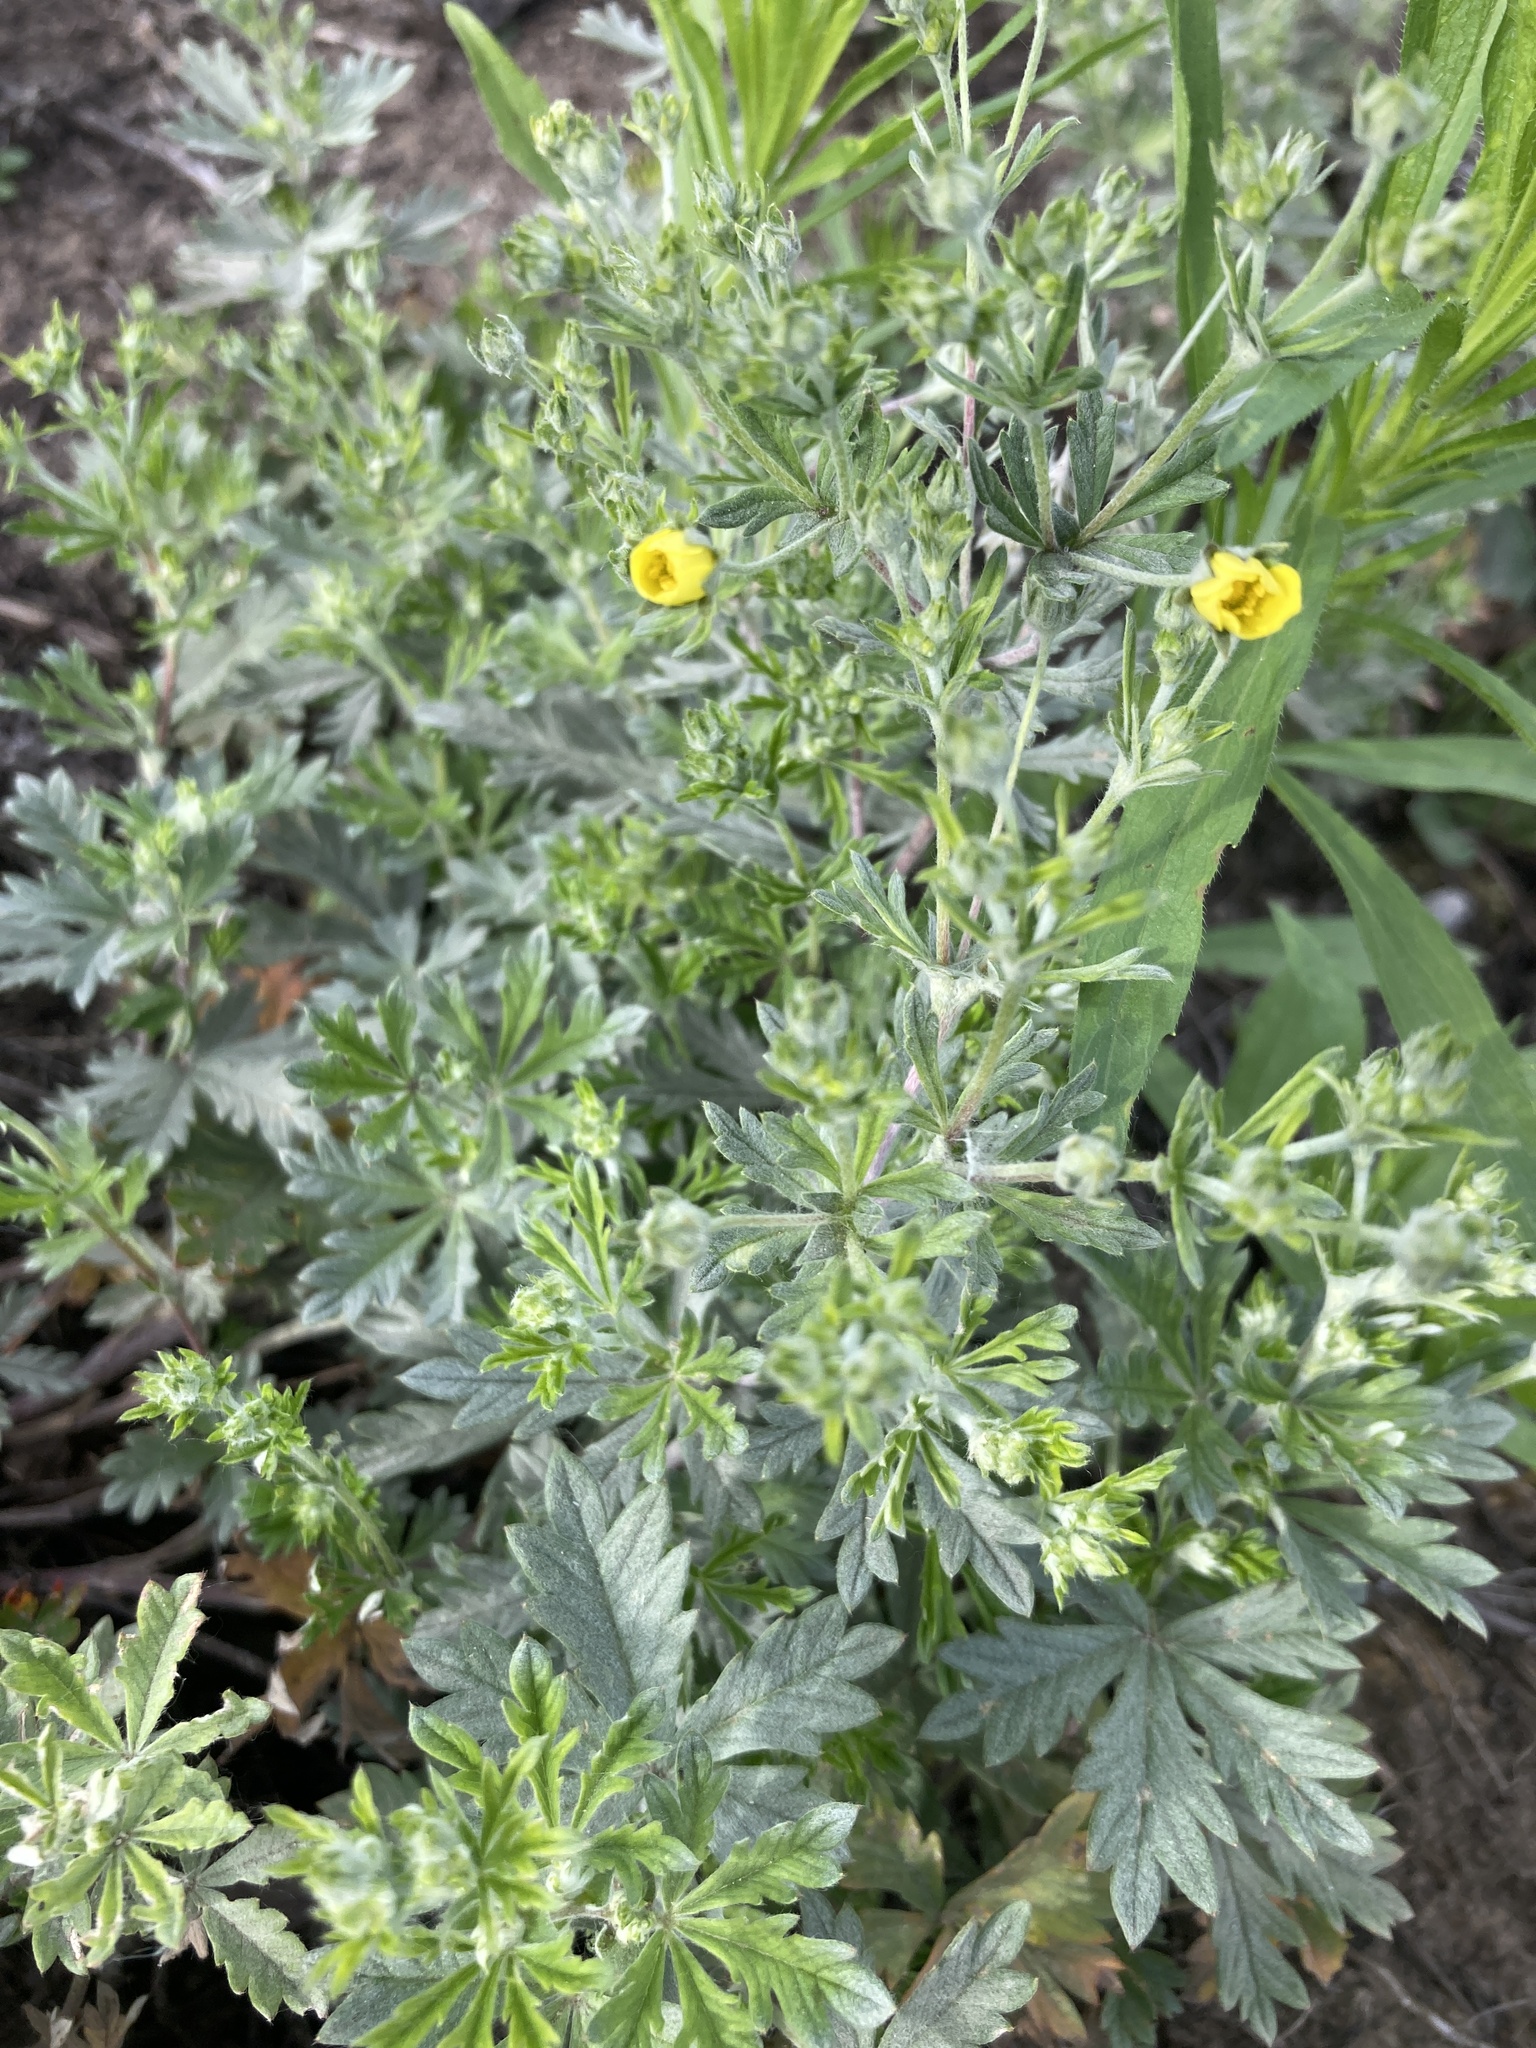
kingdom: Plantae
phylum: Tracheophyta
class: Magnoliopsida
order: Rosales
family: Rosaceae
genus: Potentilla
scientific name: Potentilla argentea
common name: Hoary cinquefoil
